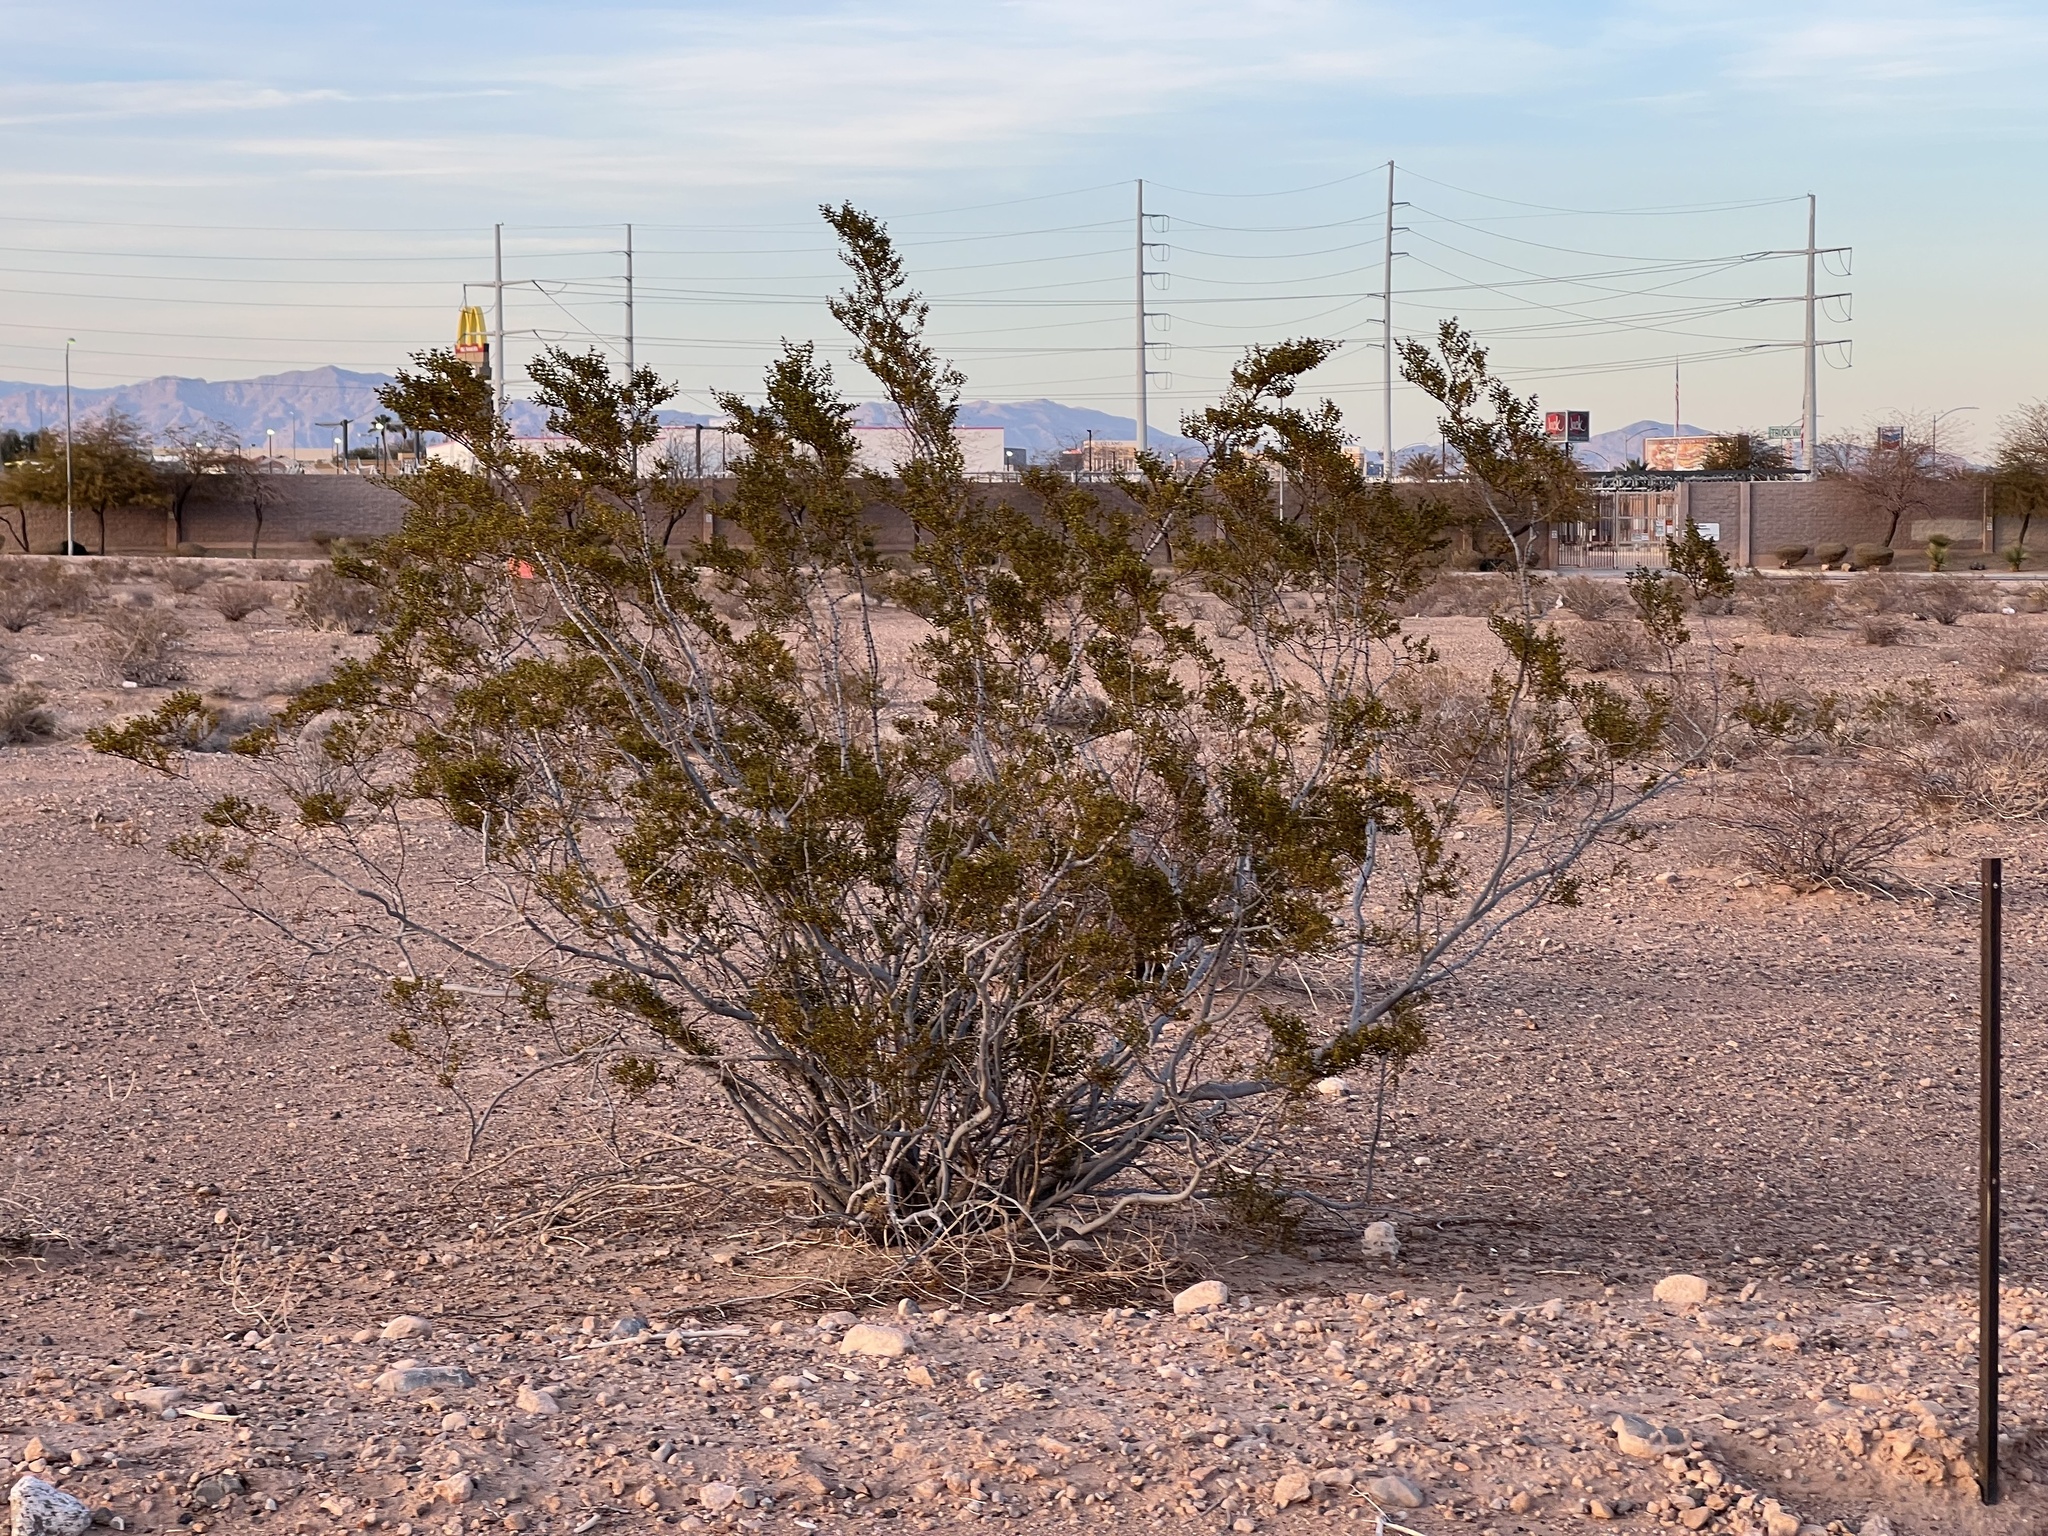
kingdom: Plantae
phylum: Tracheophyta
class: Magnoliopsida
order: Zygophyllales
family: Zygophyllaceae
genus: Larrea
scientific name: Larrea tridentata
